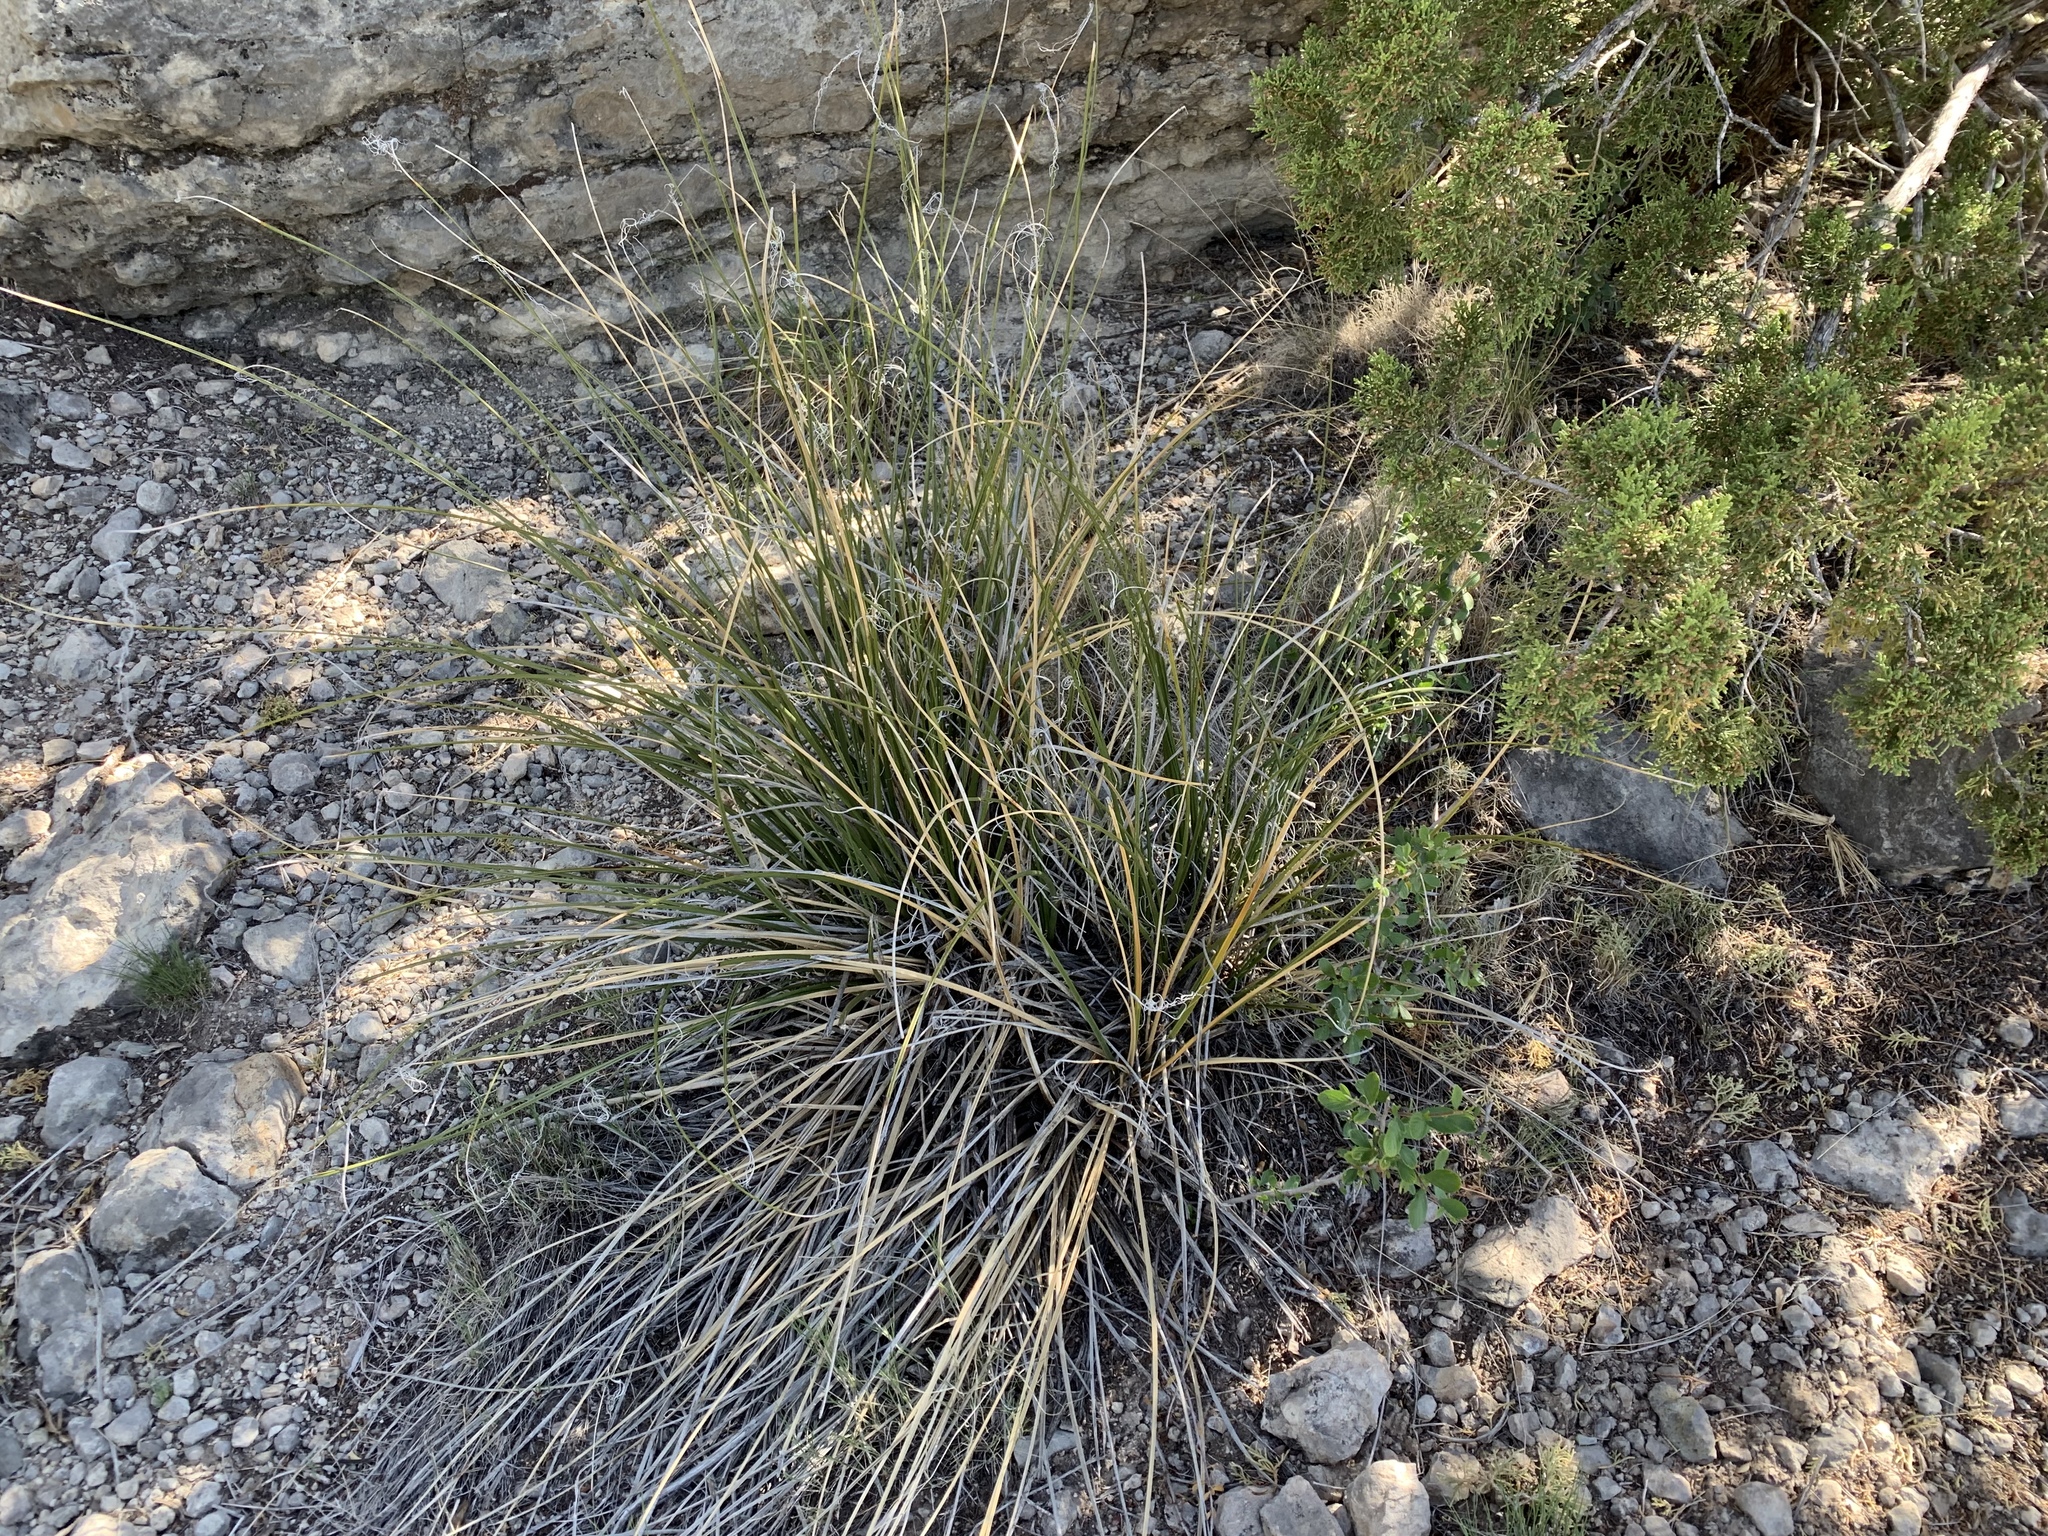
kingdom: Plantae
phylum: Tracheophyta
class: Liliopsida
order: Asparagales
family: Asparagaceae
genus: Nolina
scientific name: Nolina microcarpa
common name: Bear-grass
